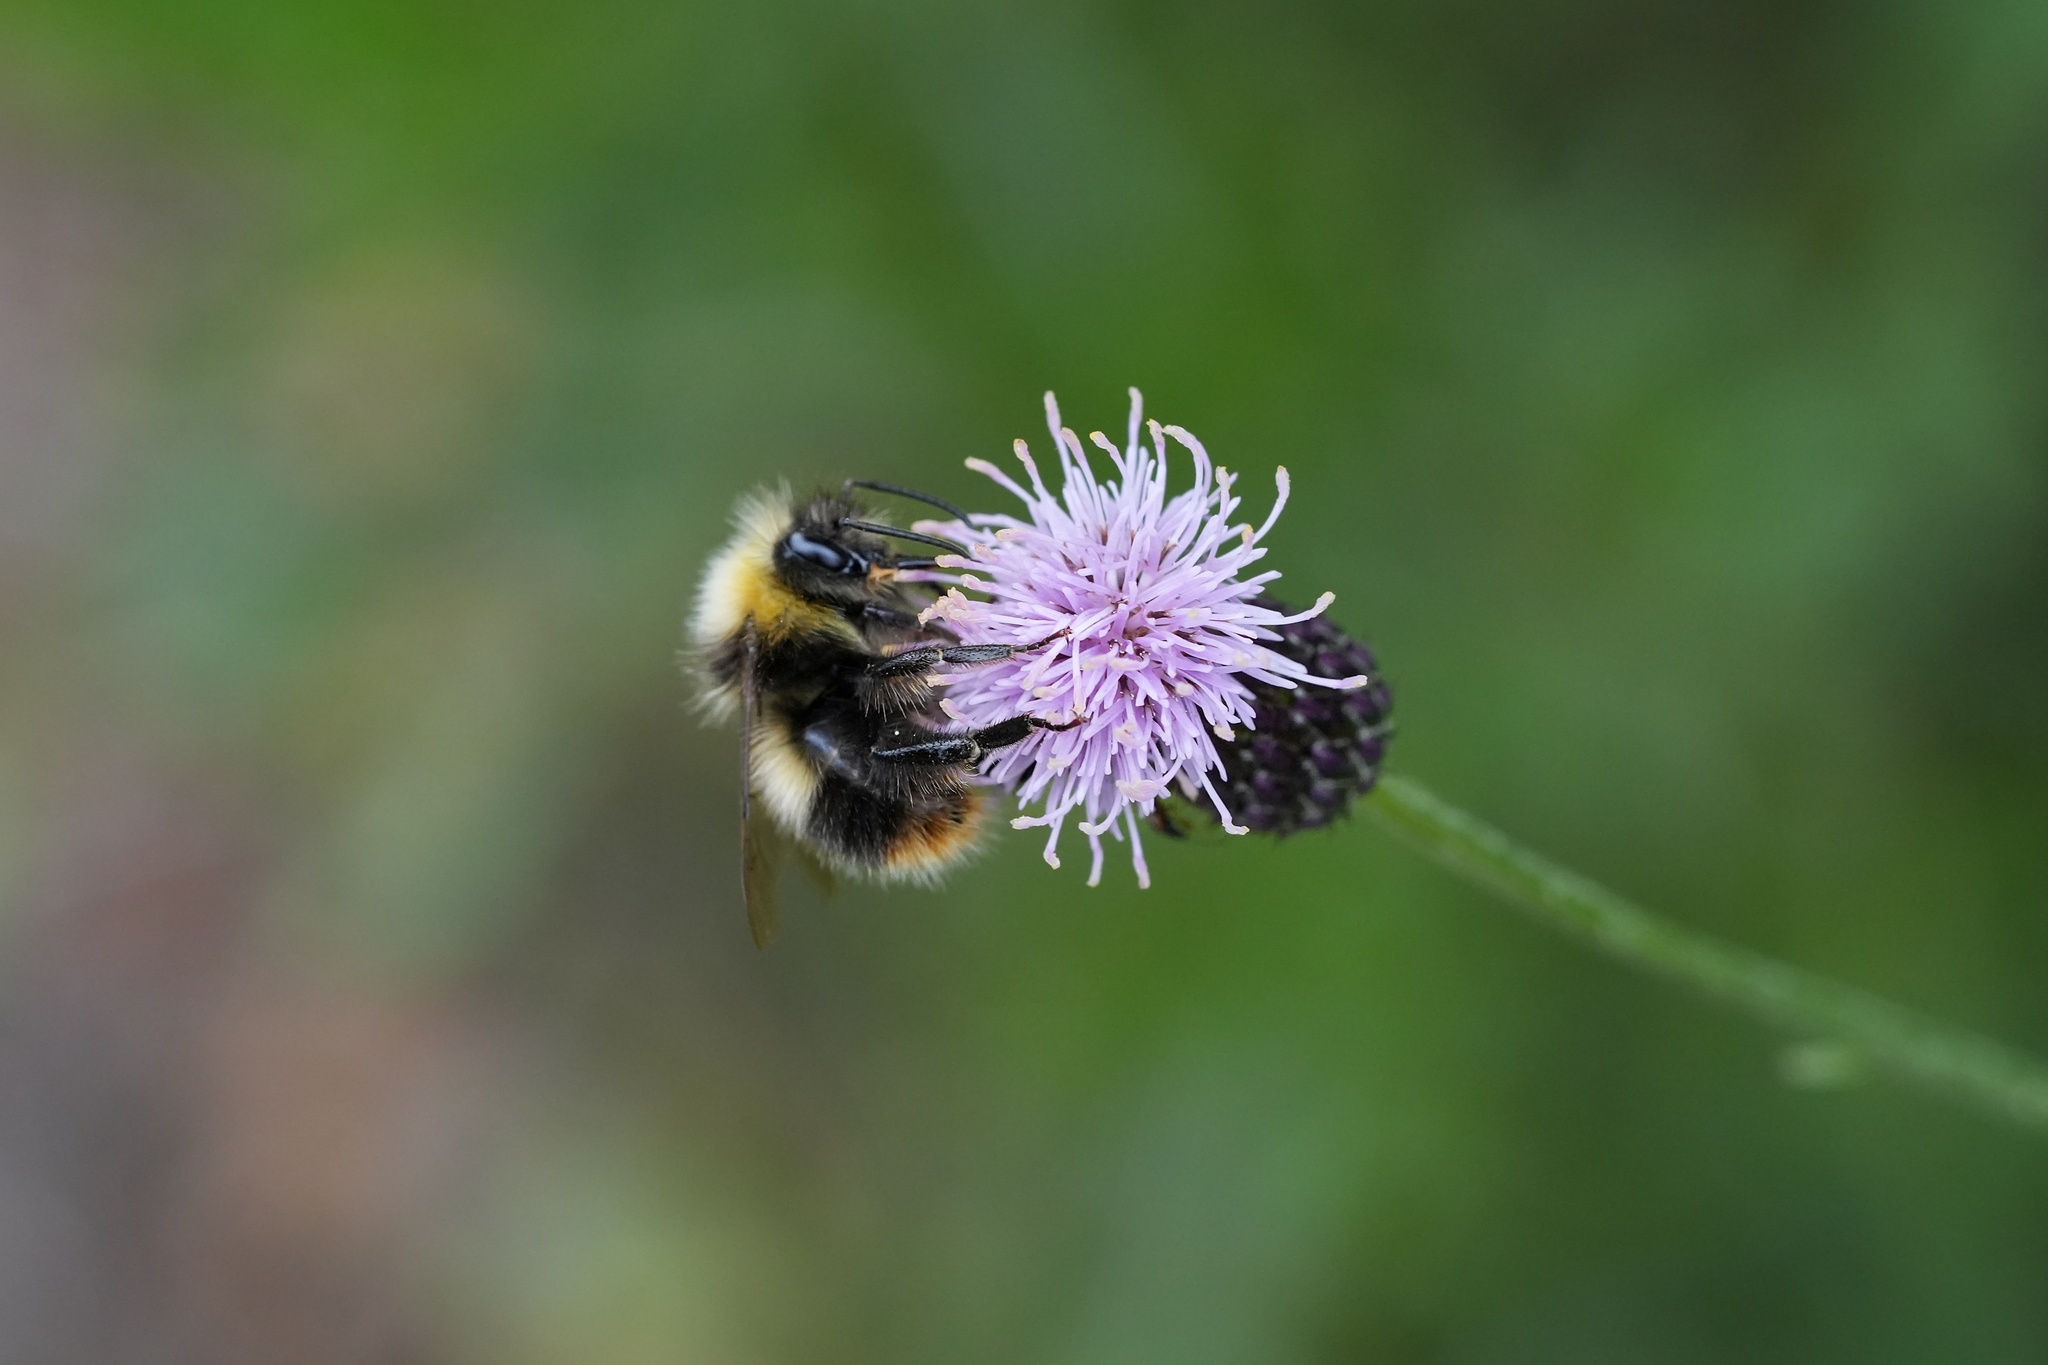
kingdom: Animalia
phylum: Arthropoda
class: Insecta
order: Hymenoptera
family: Apidae
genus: Bombus
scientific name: Bombus pratorum
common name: Early humble-bee
